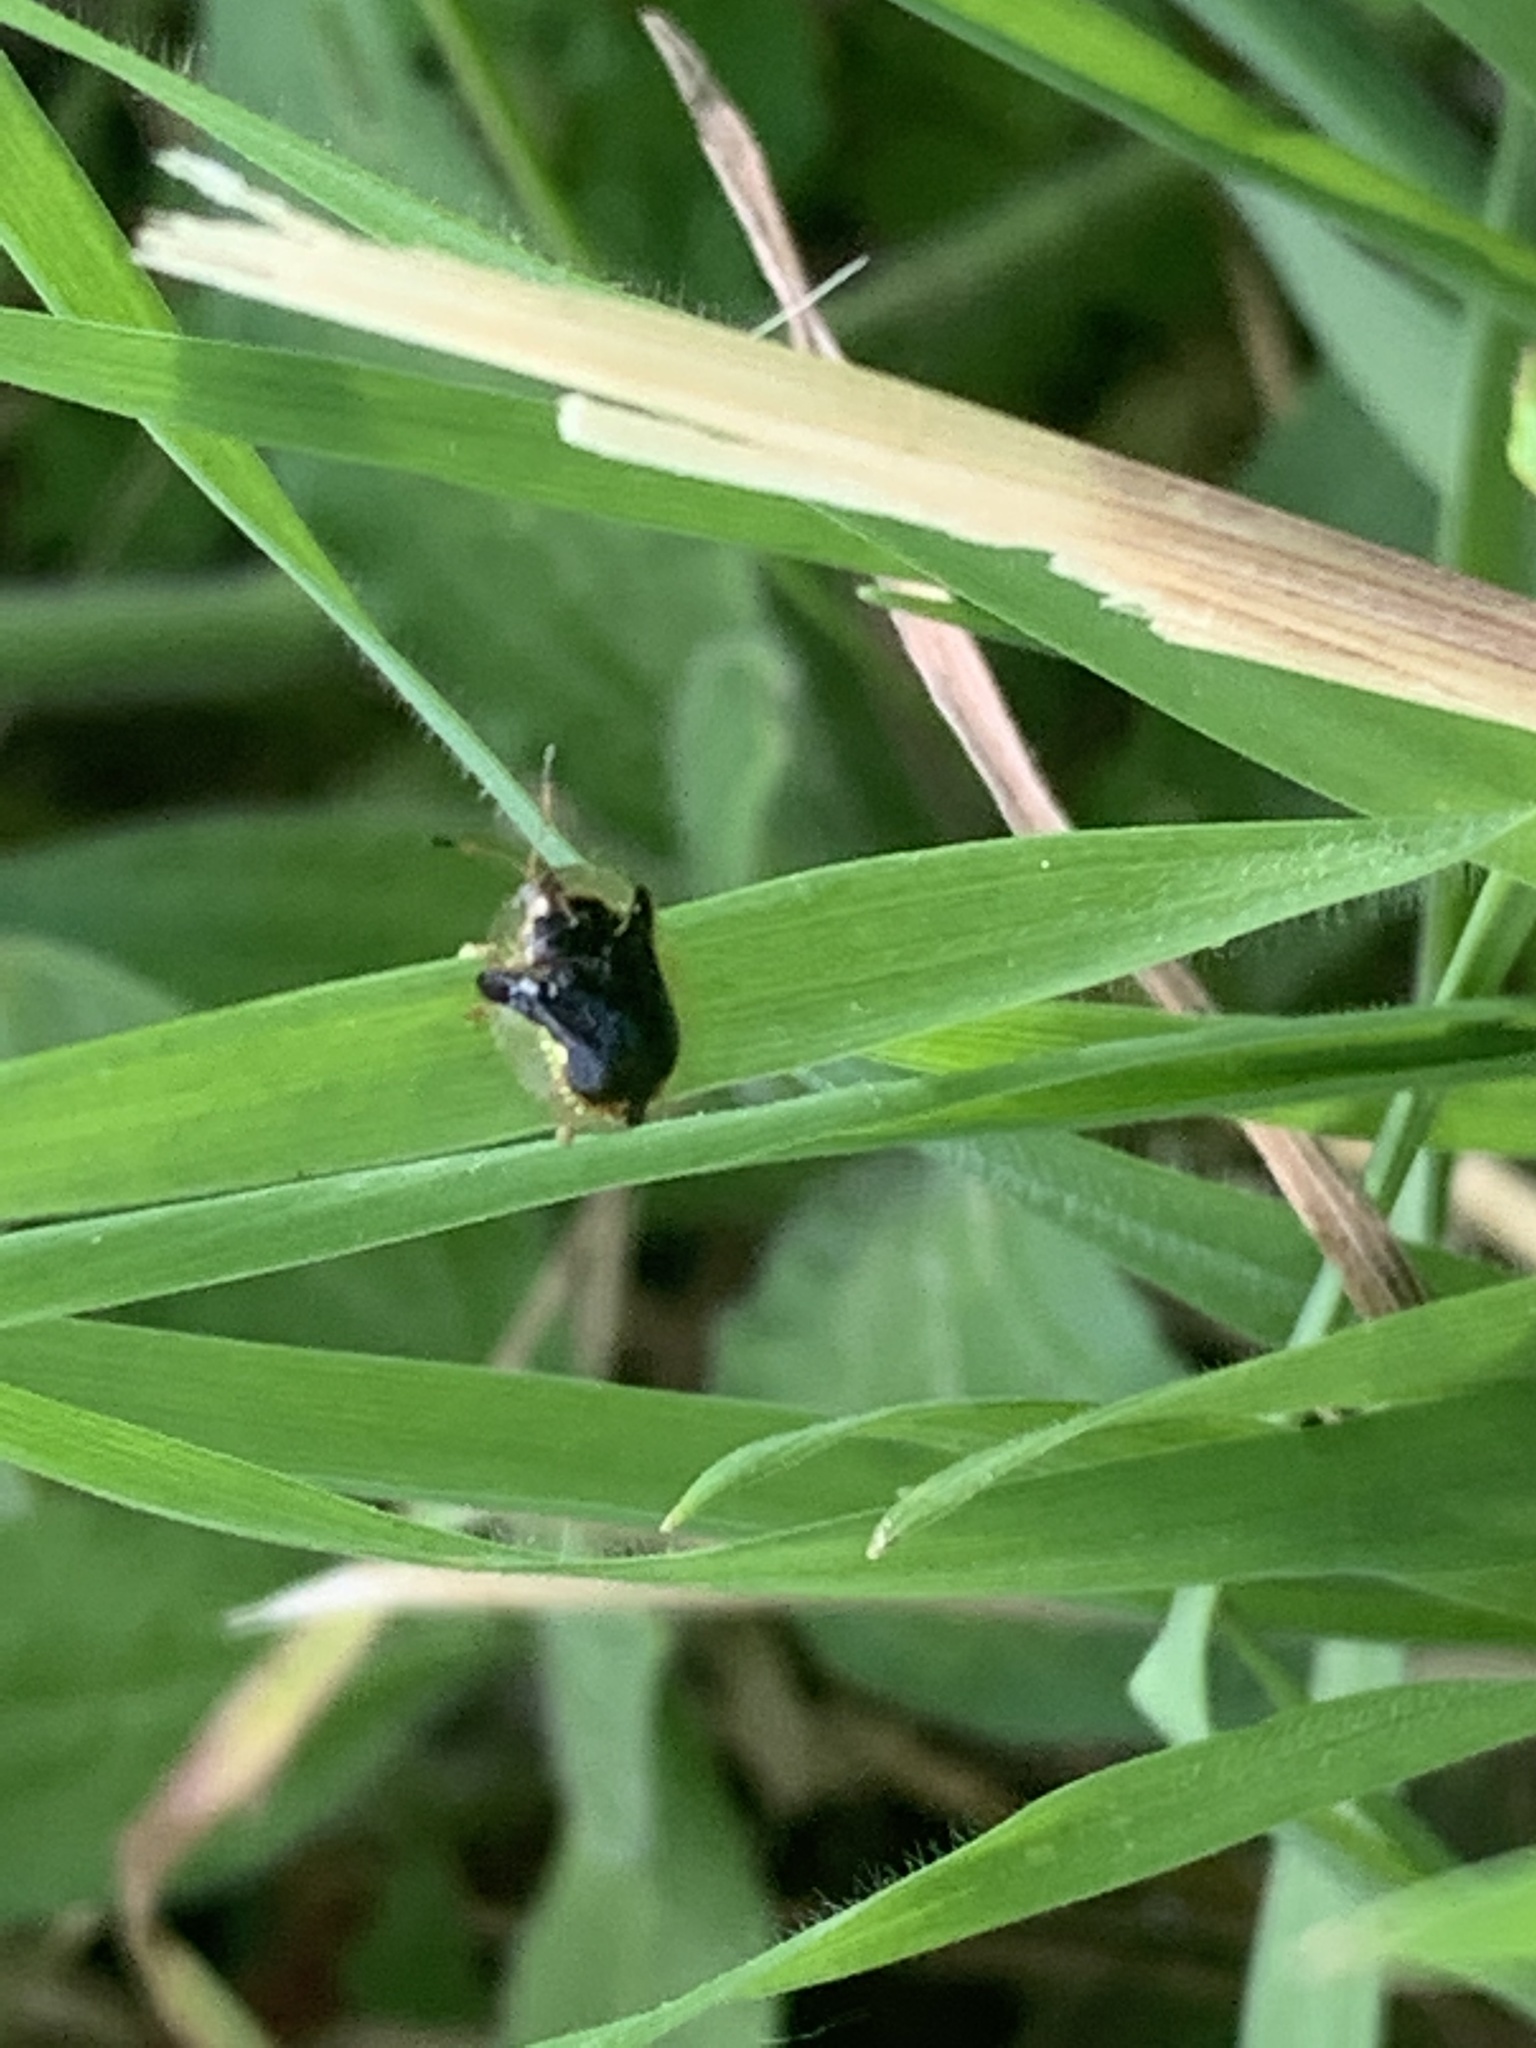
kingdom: Animalia
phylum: Arthropoda
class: Insecta
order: Coleoptera
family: Chrysomelidae
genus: Deloyala
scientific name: Deloyala guttata
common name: Mottled tortoise beetle
